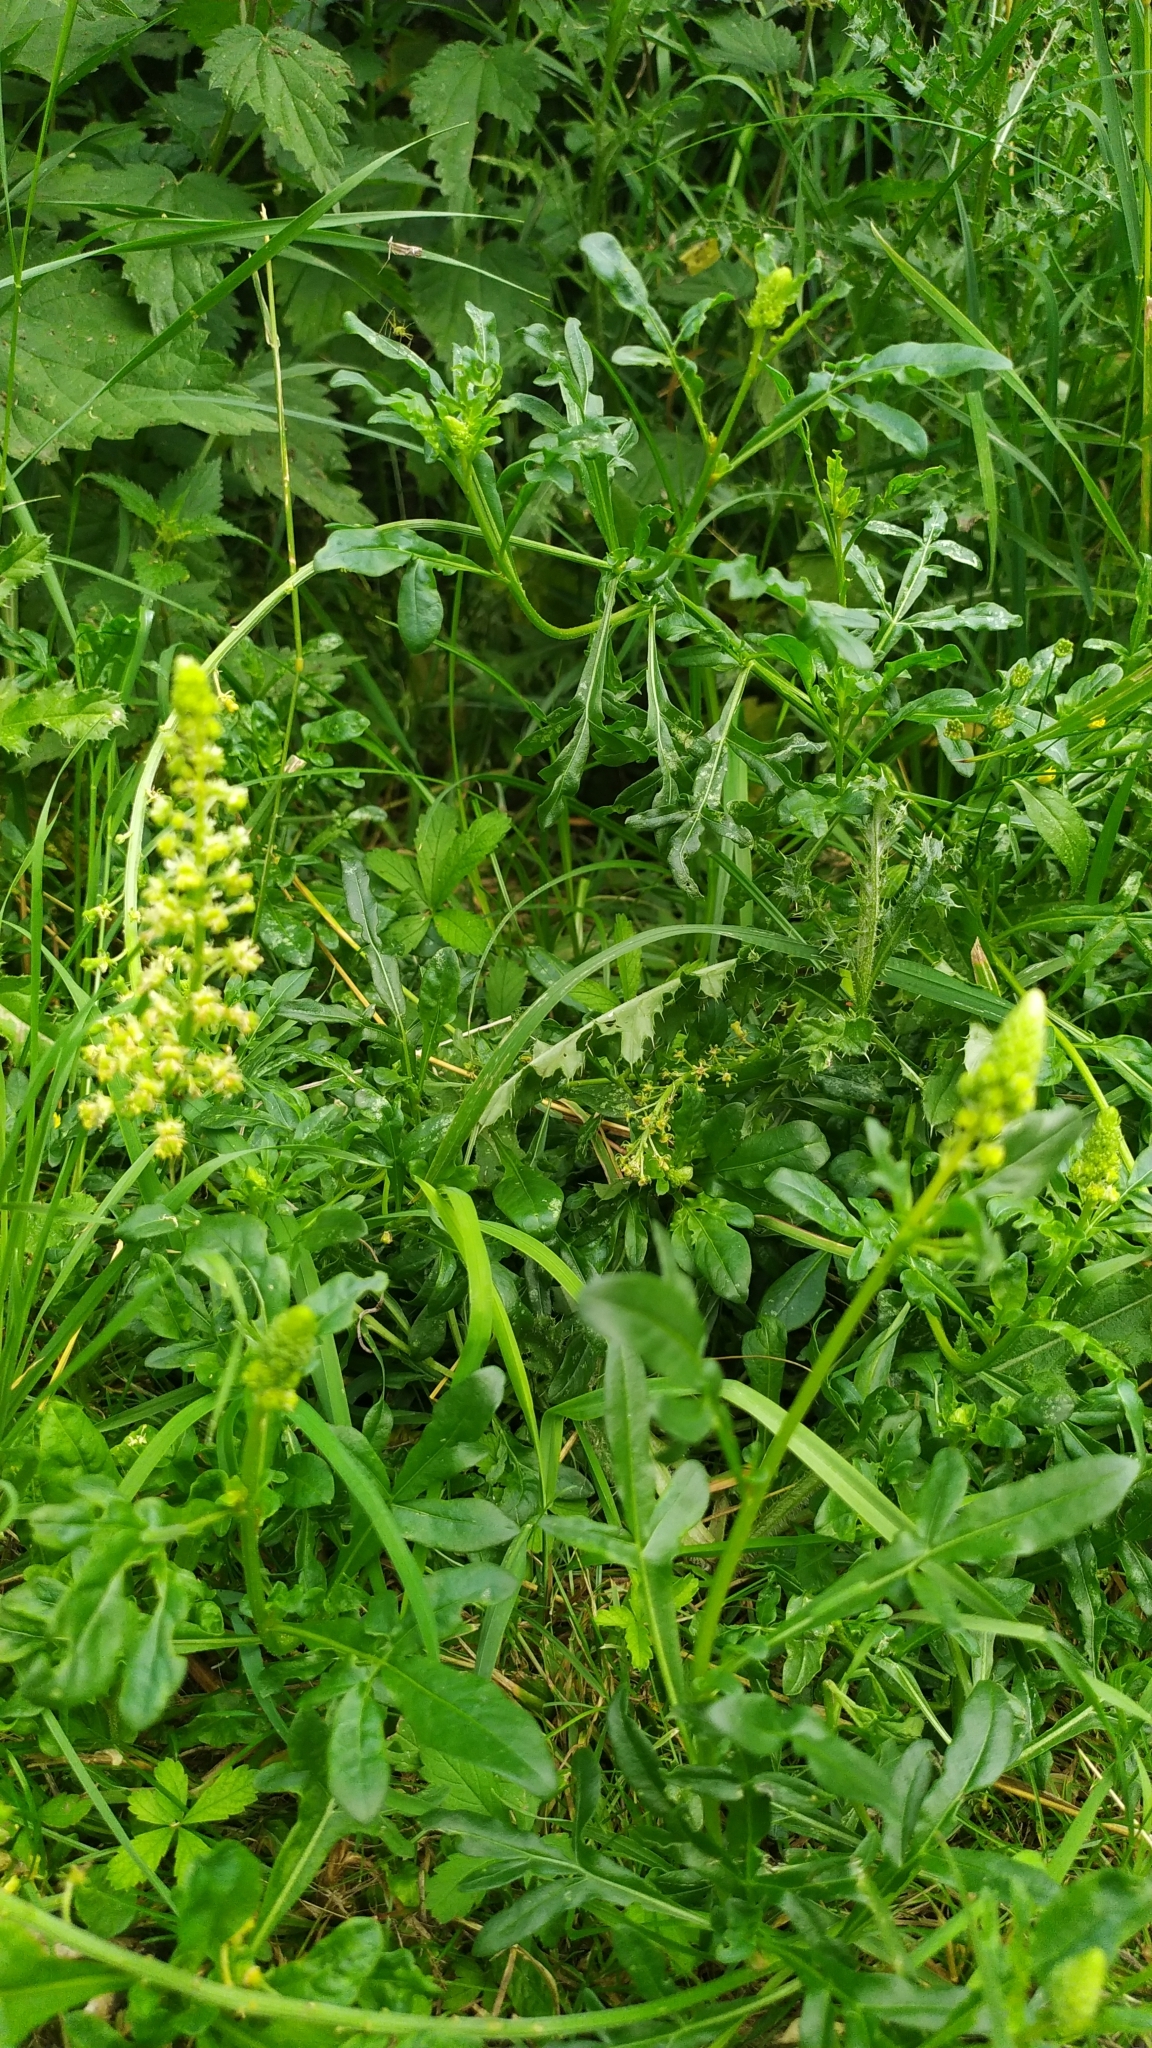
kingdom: Plantae
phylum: Tracheophyta
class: Magnoliopsida
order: Brassicales
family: Resedaceae
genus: Reseda
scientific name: Reseda lutea
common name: Wild mignonette
